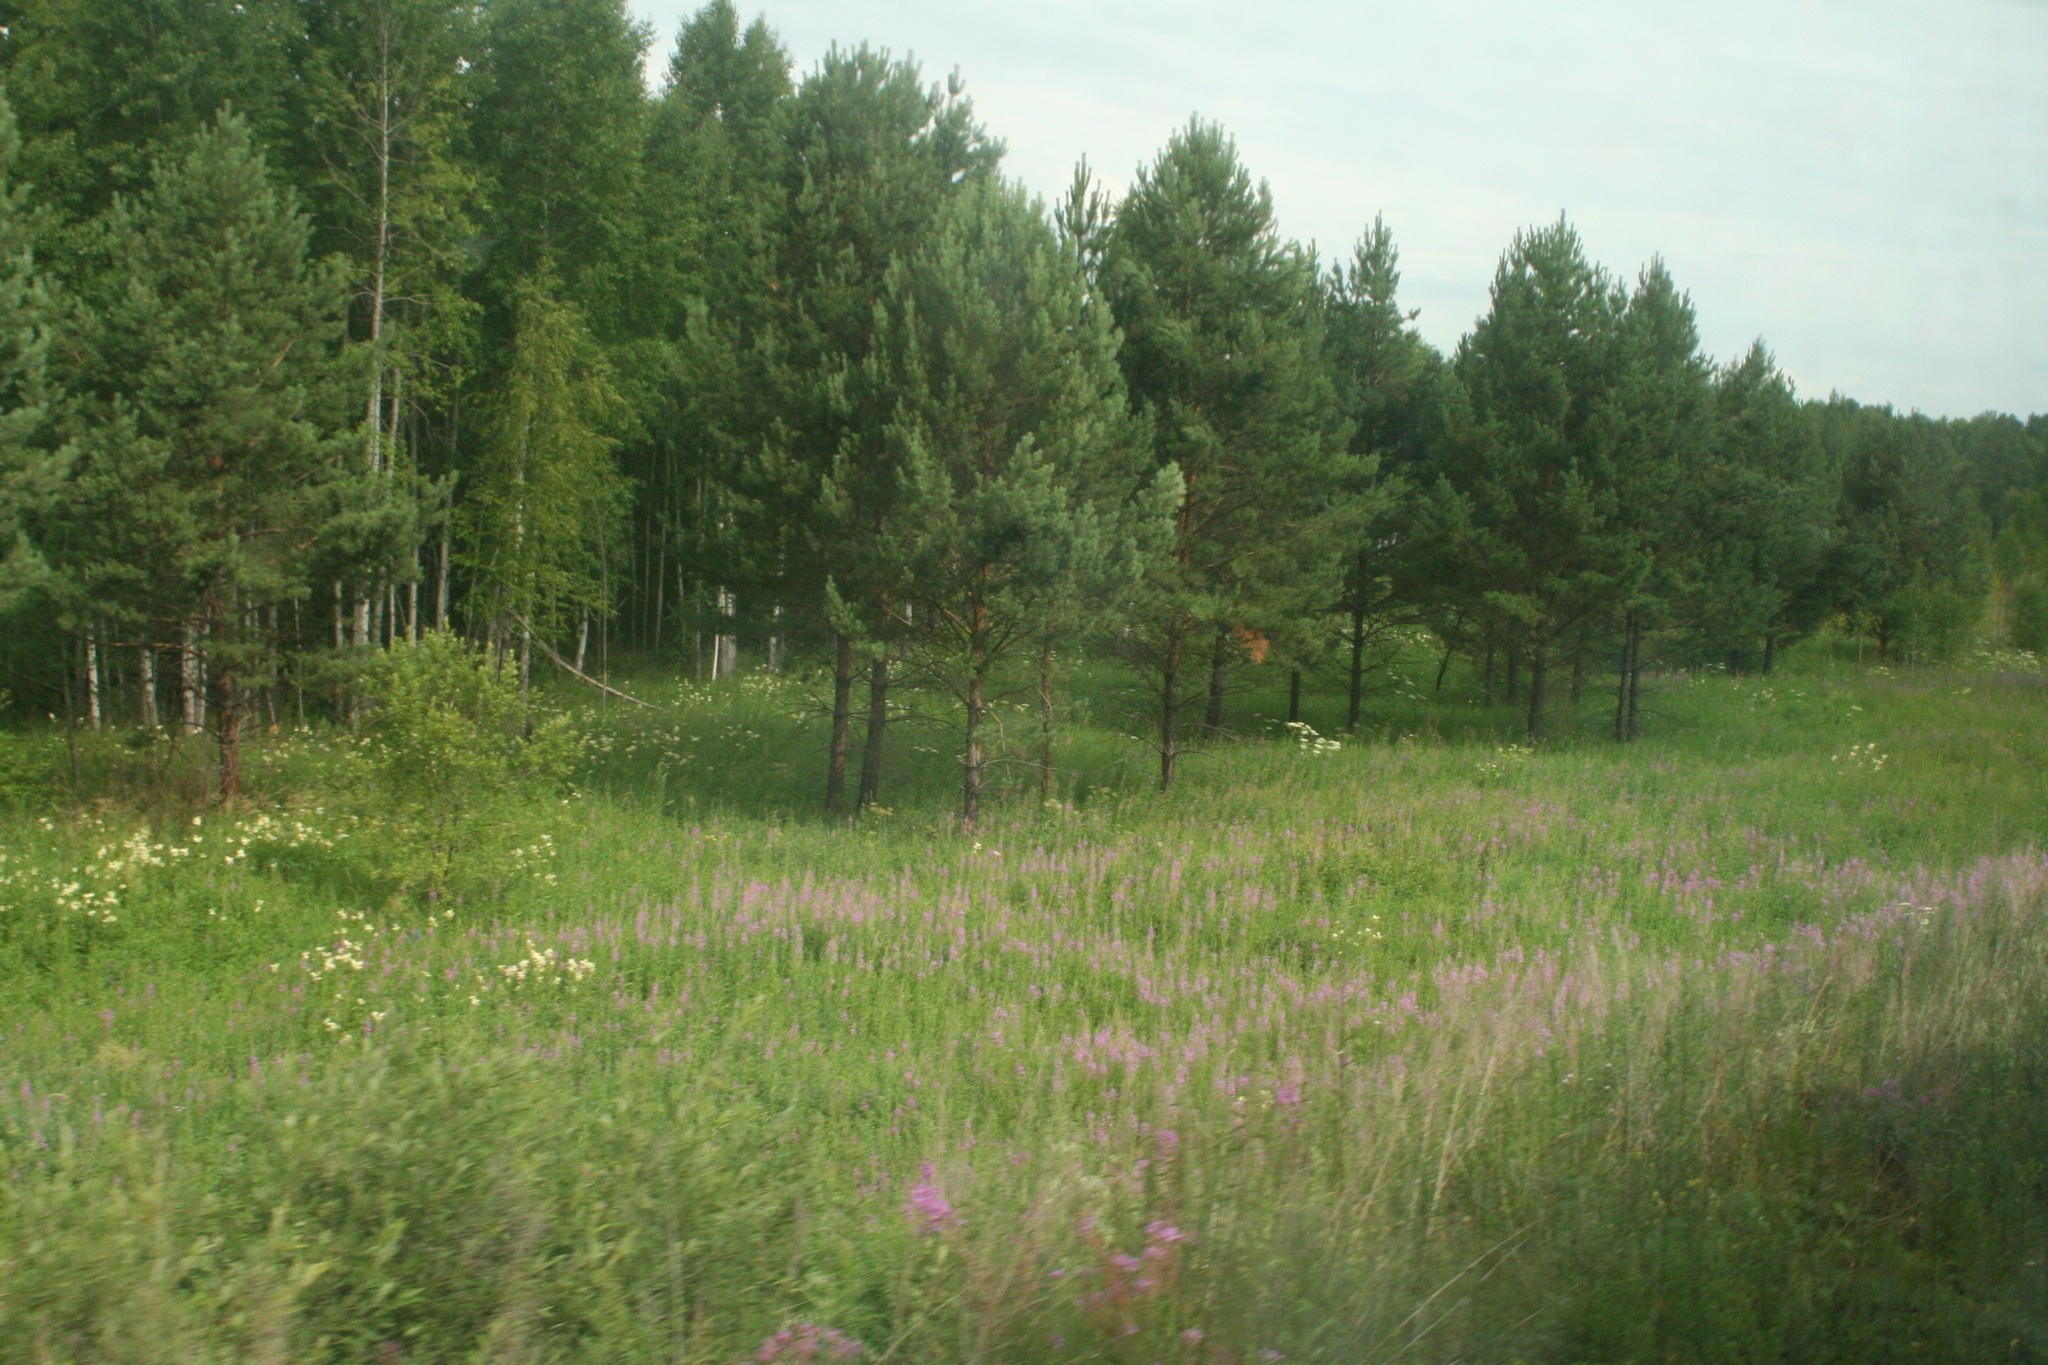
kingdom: Plantae
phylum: Tracheophyta
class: Pinopsida
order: Pinales
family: Pinaceae
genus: Pinus
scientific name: Pinus sylvestris
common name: Scots pine
